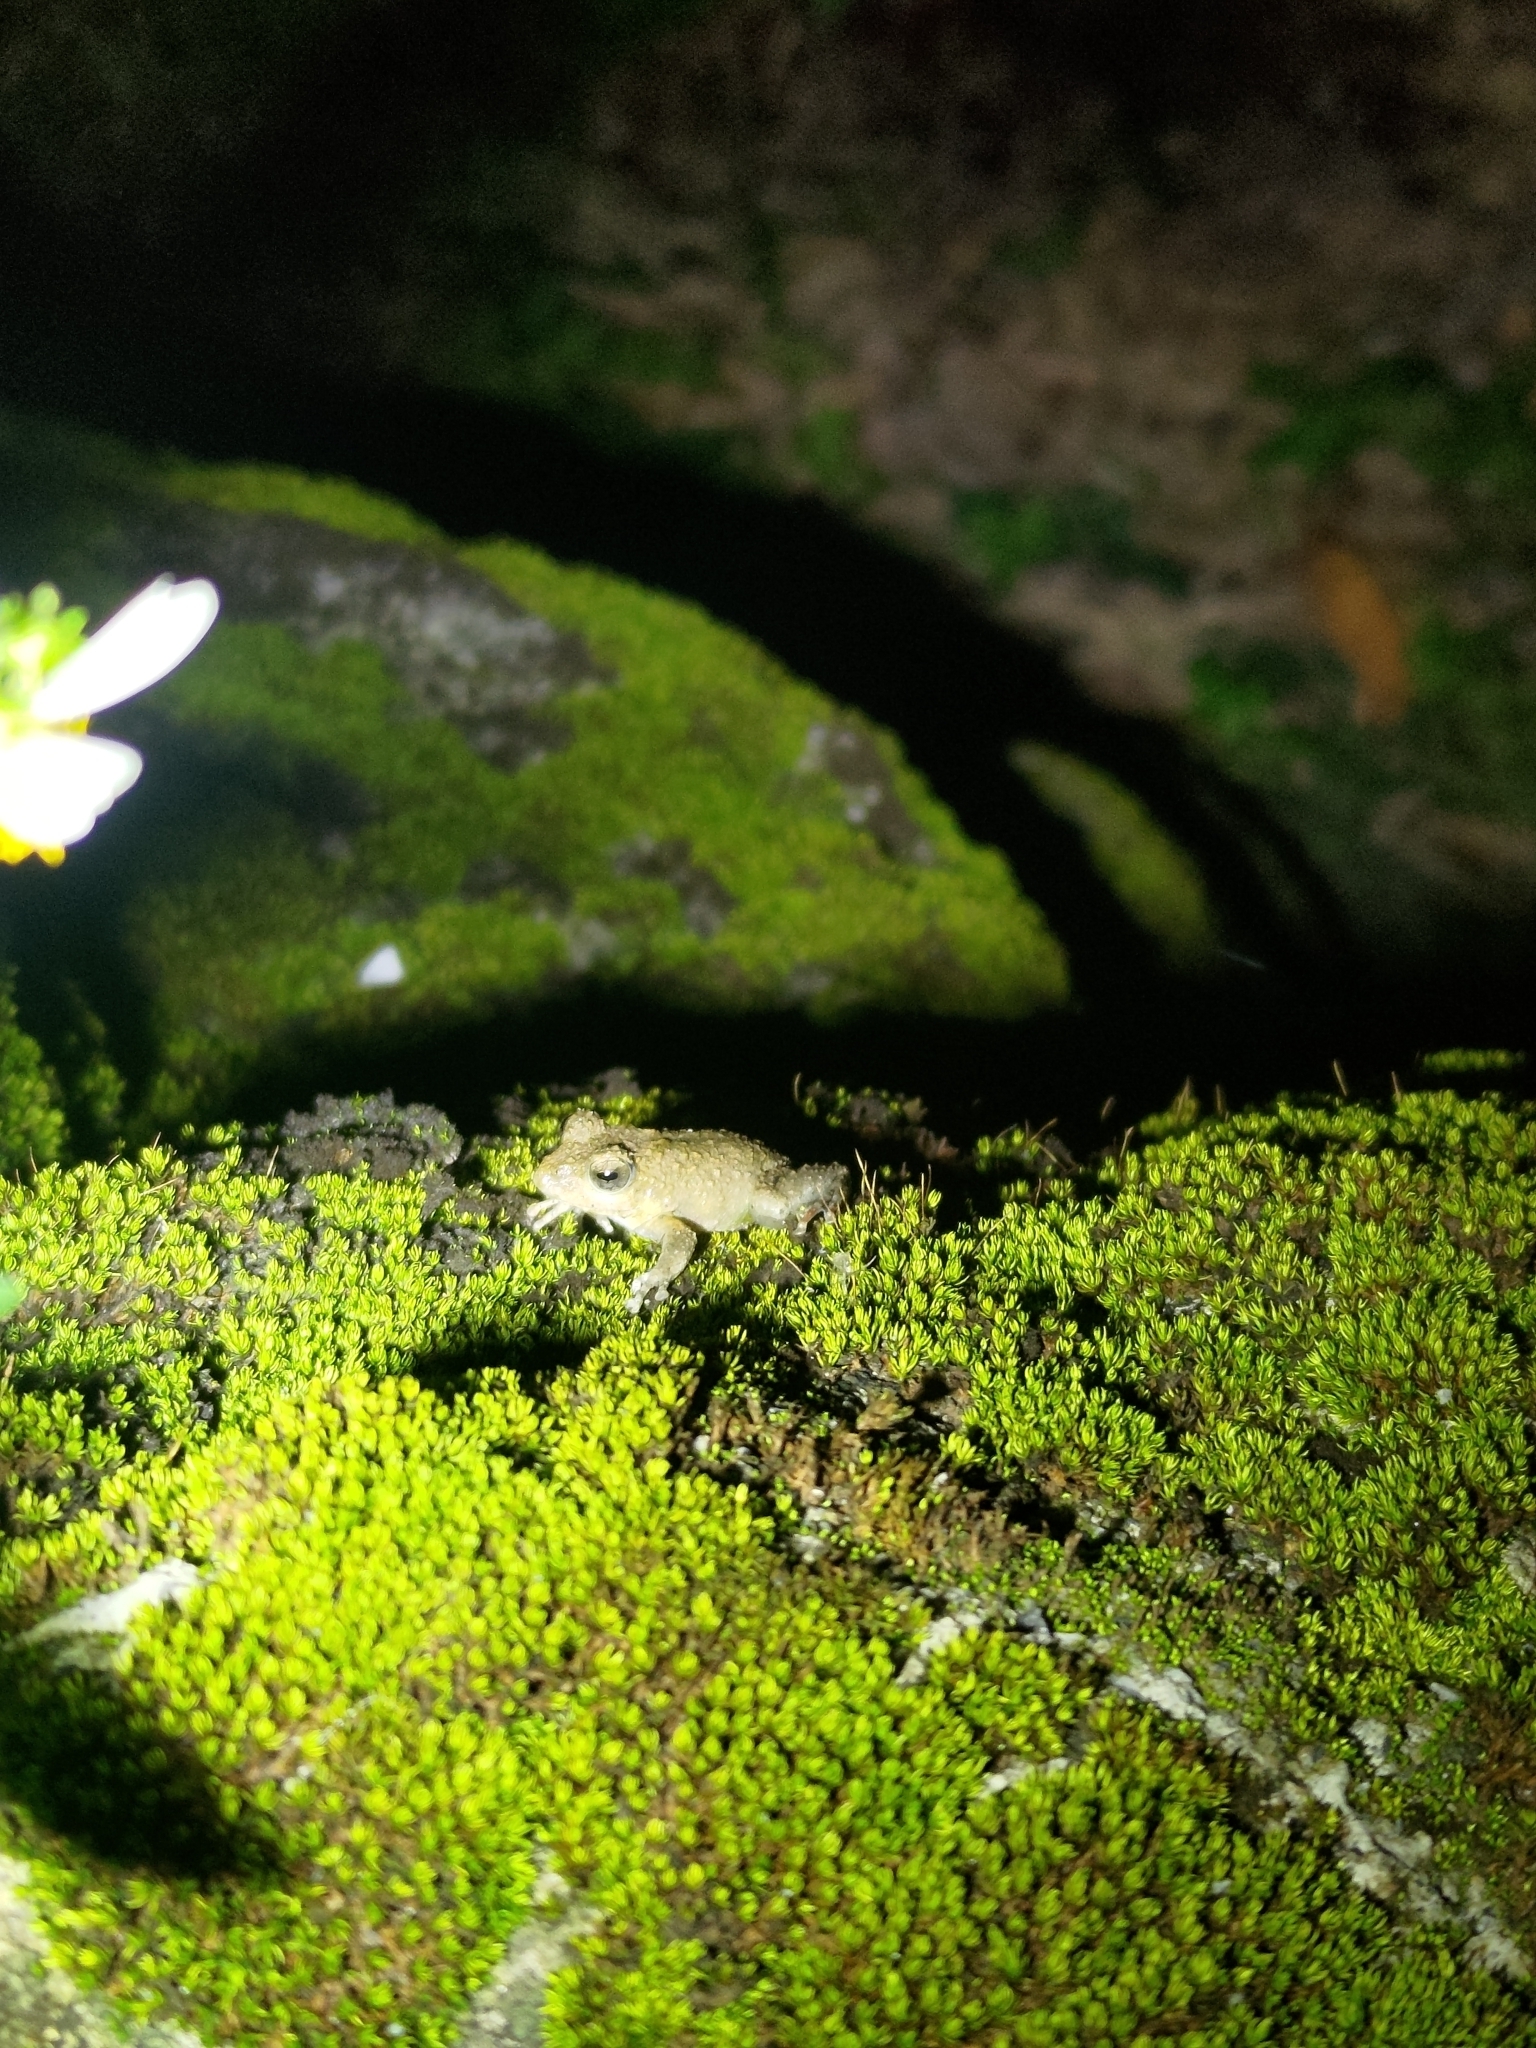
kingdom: Animalia
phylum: Chordata
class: Amphibia
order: Anura
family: Rhacophoridae
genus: Buergeria
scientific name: Buergeria otai
